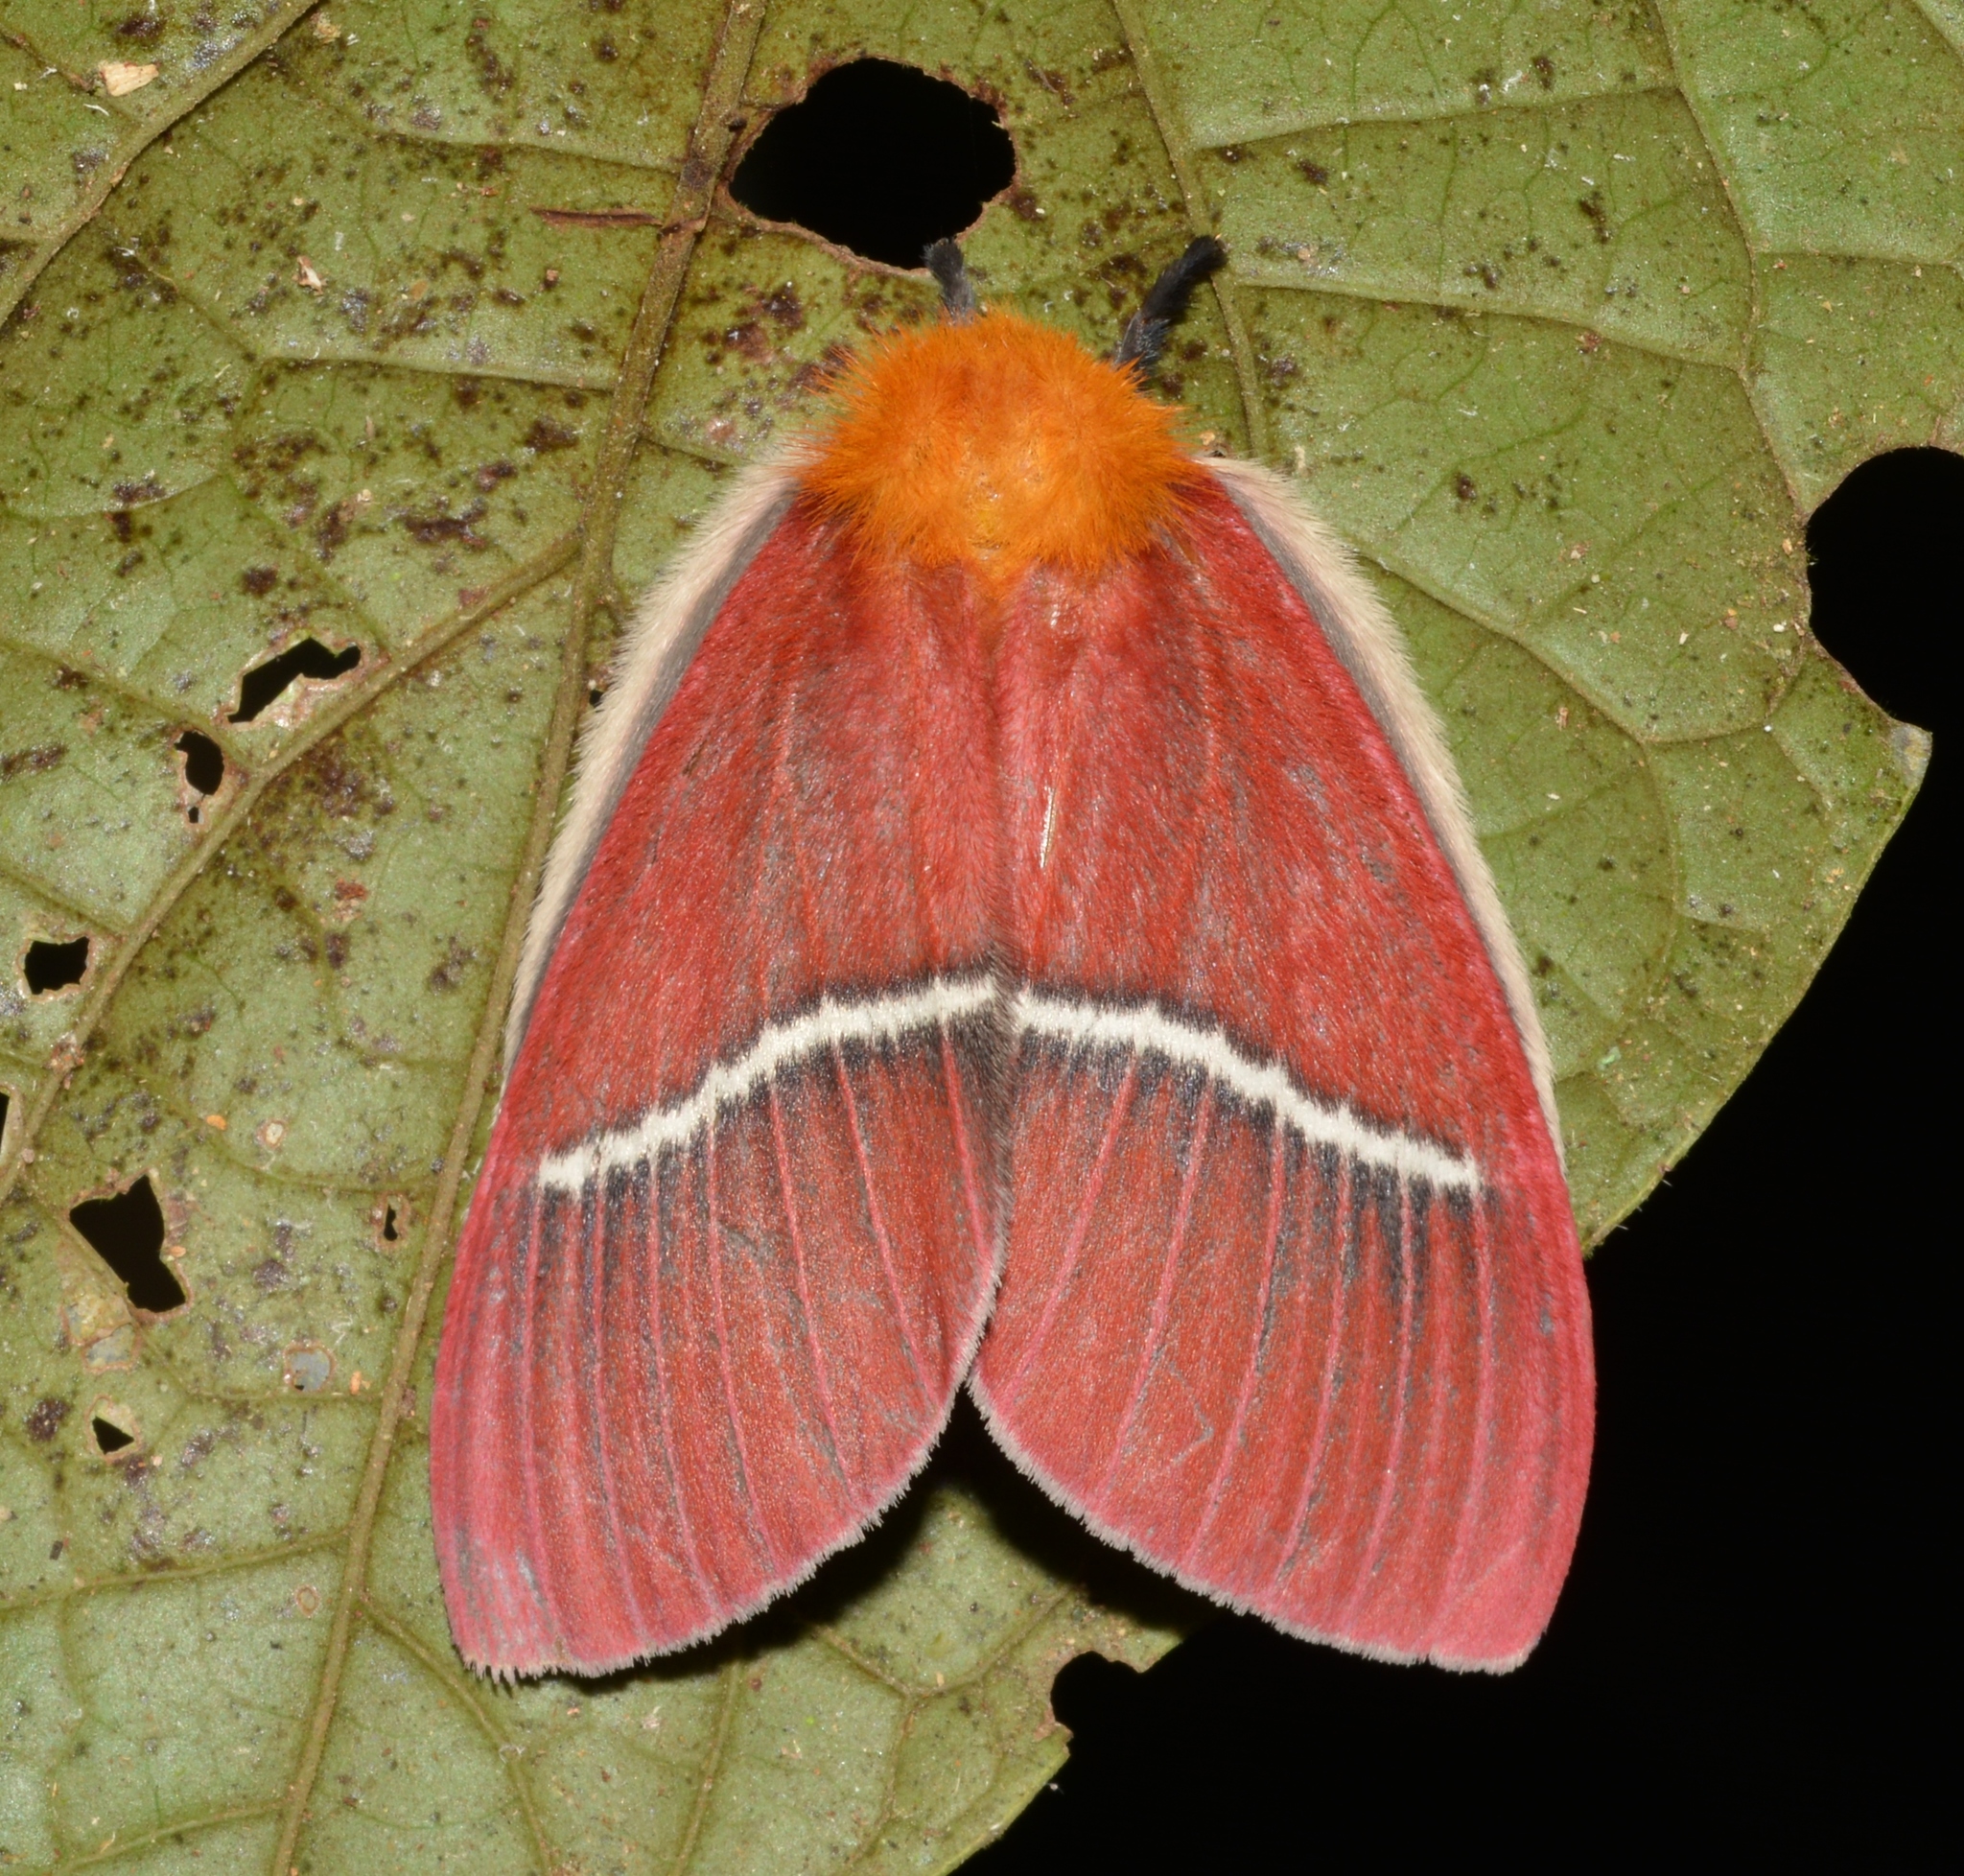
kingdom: Animalia
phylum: Arthropoda
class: Insecta
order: Lepidoptera
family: Saturniidae
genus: Pseudodirphia
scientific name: Pseudodirphia menander
